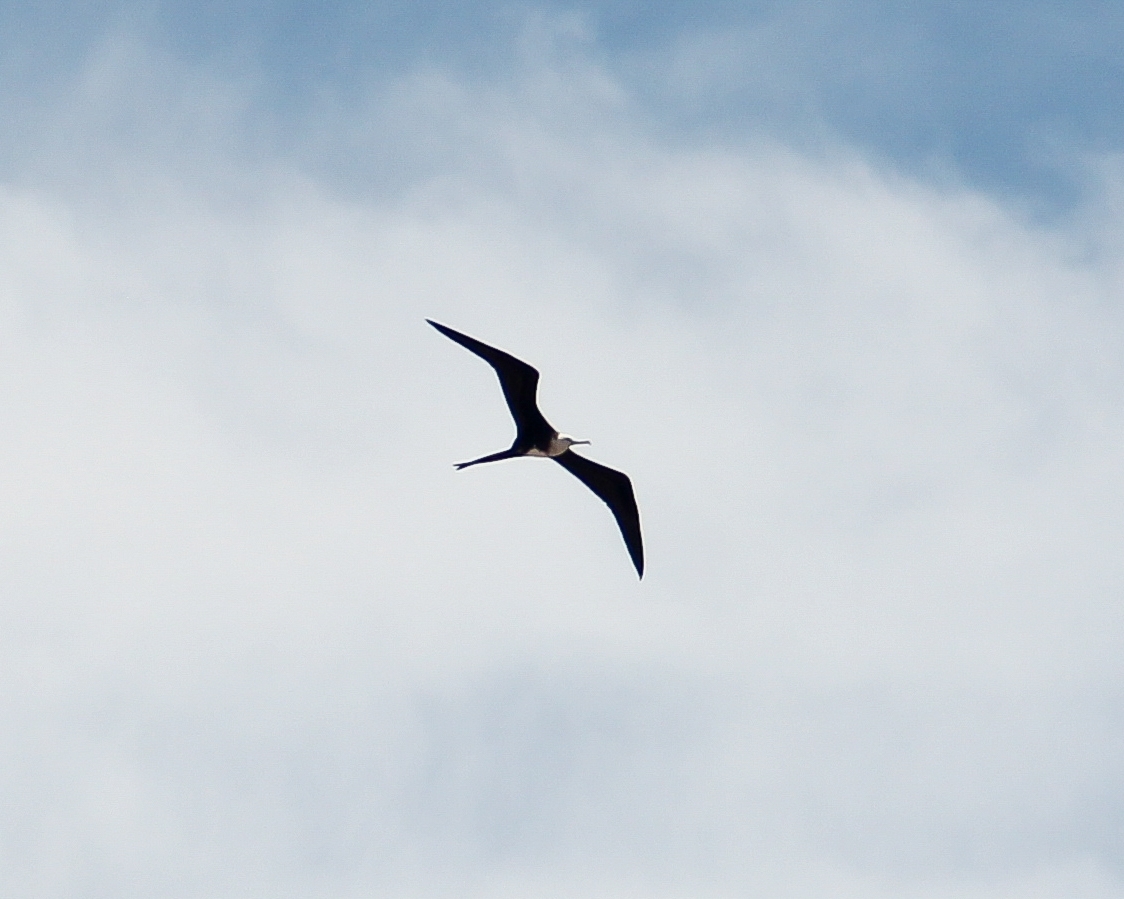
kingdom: Animalia
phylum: Chordata
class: Aves
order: Suliformes
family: Fregatidae
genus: Fregata
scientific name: Fregata magnificens
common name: Magnificent frigatebird
